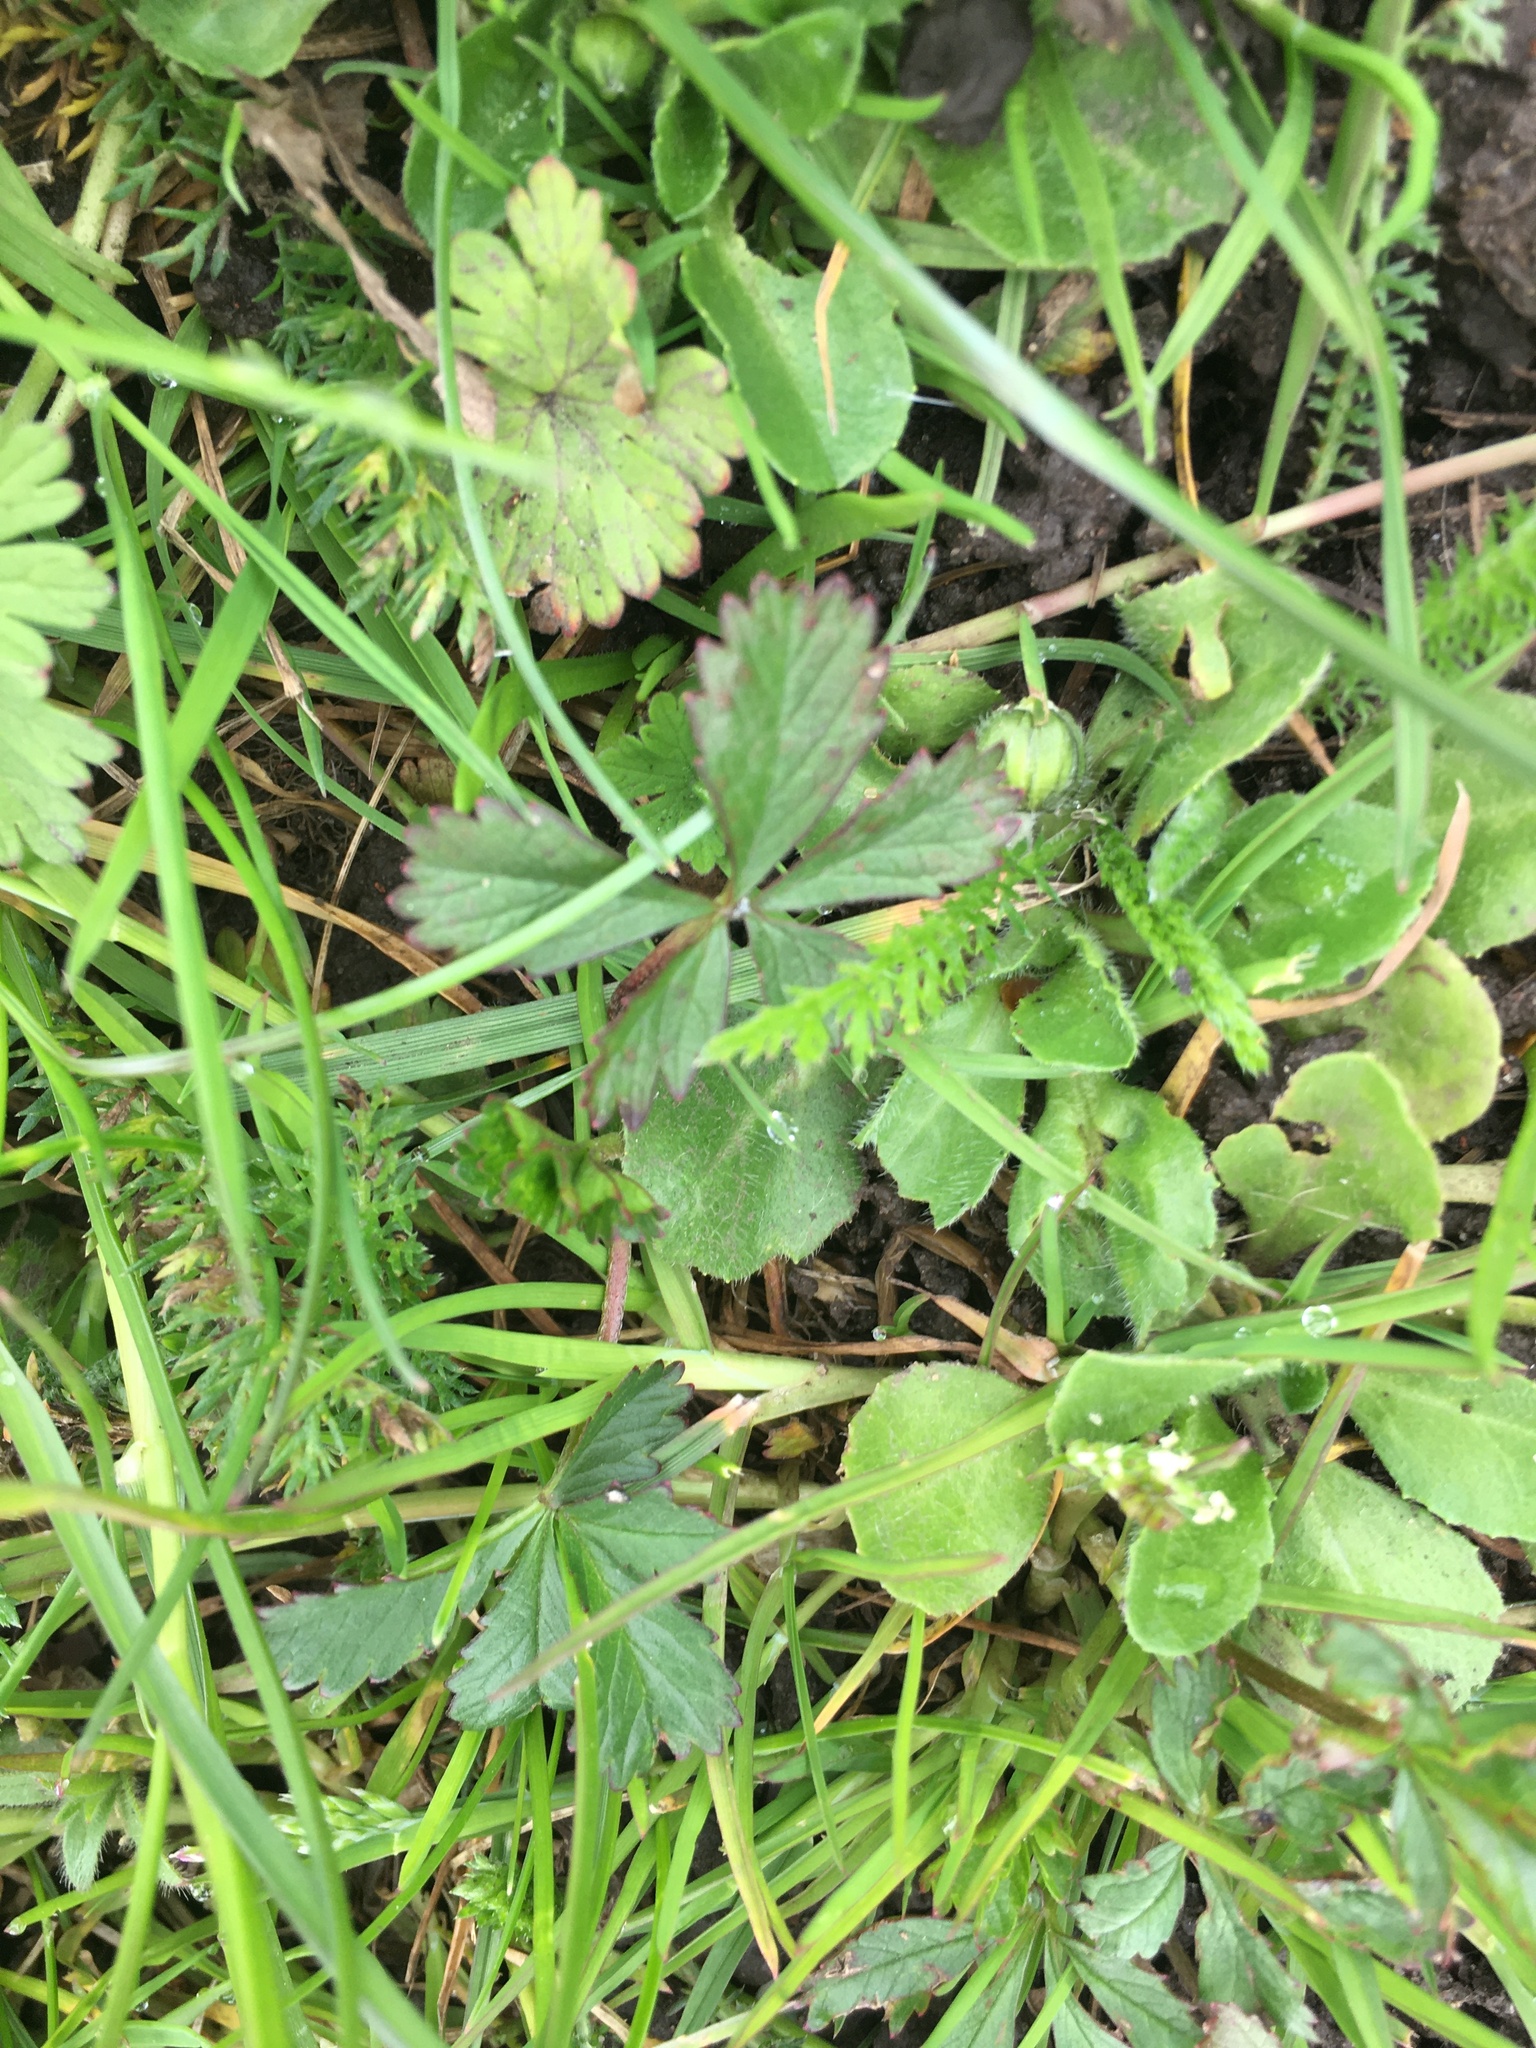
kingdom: Plantae
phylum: Tracheophyta
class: Magnoliopsida
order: Rosales
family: Rosaceae
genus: Potentilla
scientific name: Potentilla reptans
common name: Creeping cinquefoil
